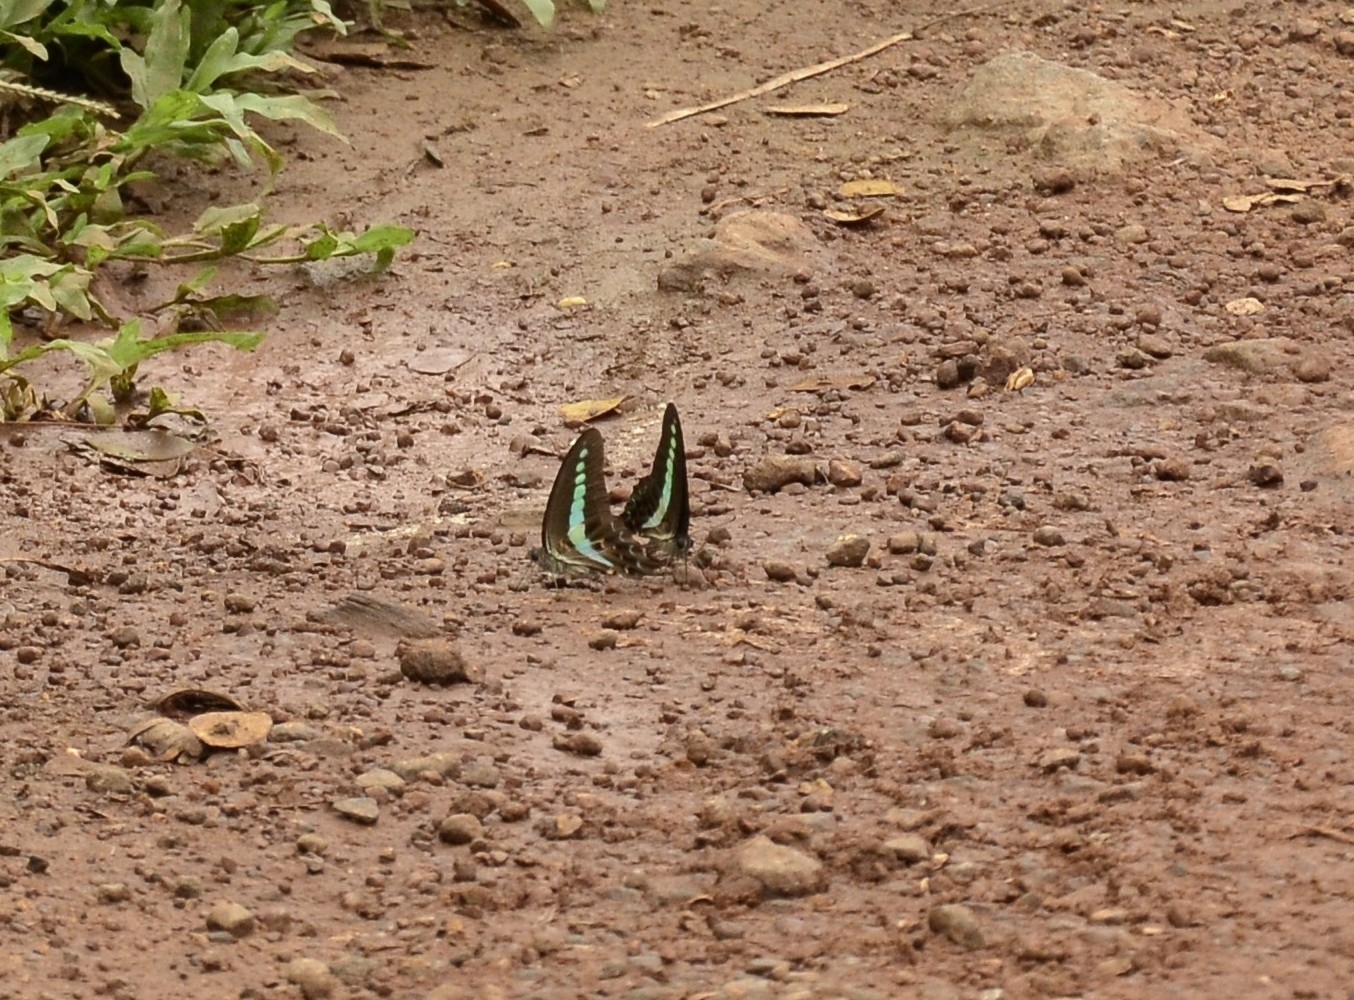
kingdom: Animalia
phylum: Arthropoda
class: Insecta
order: Lepidoptera
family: Papilionidae
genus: Graphium
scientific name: Graphium
